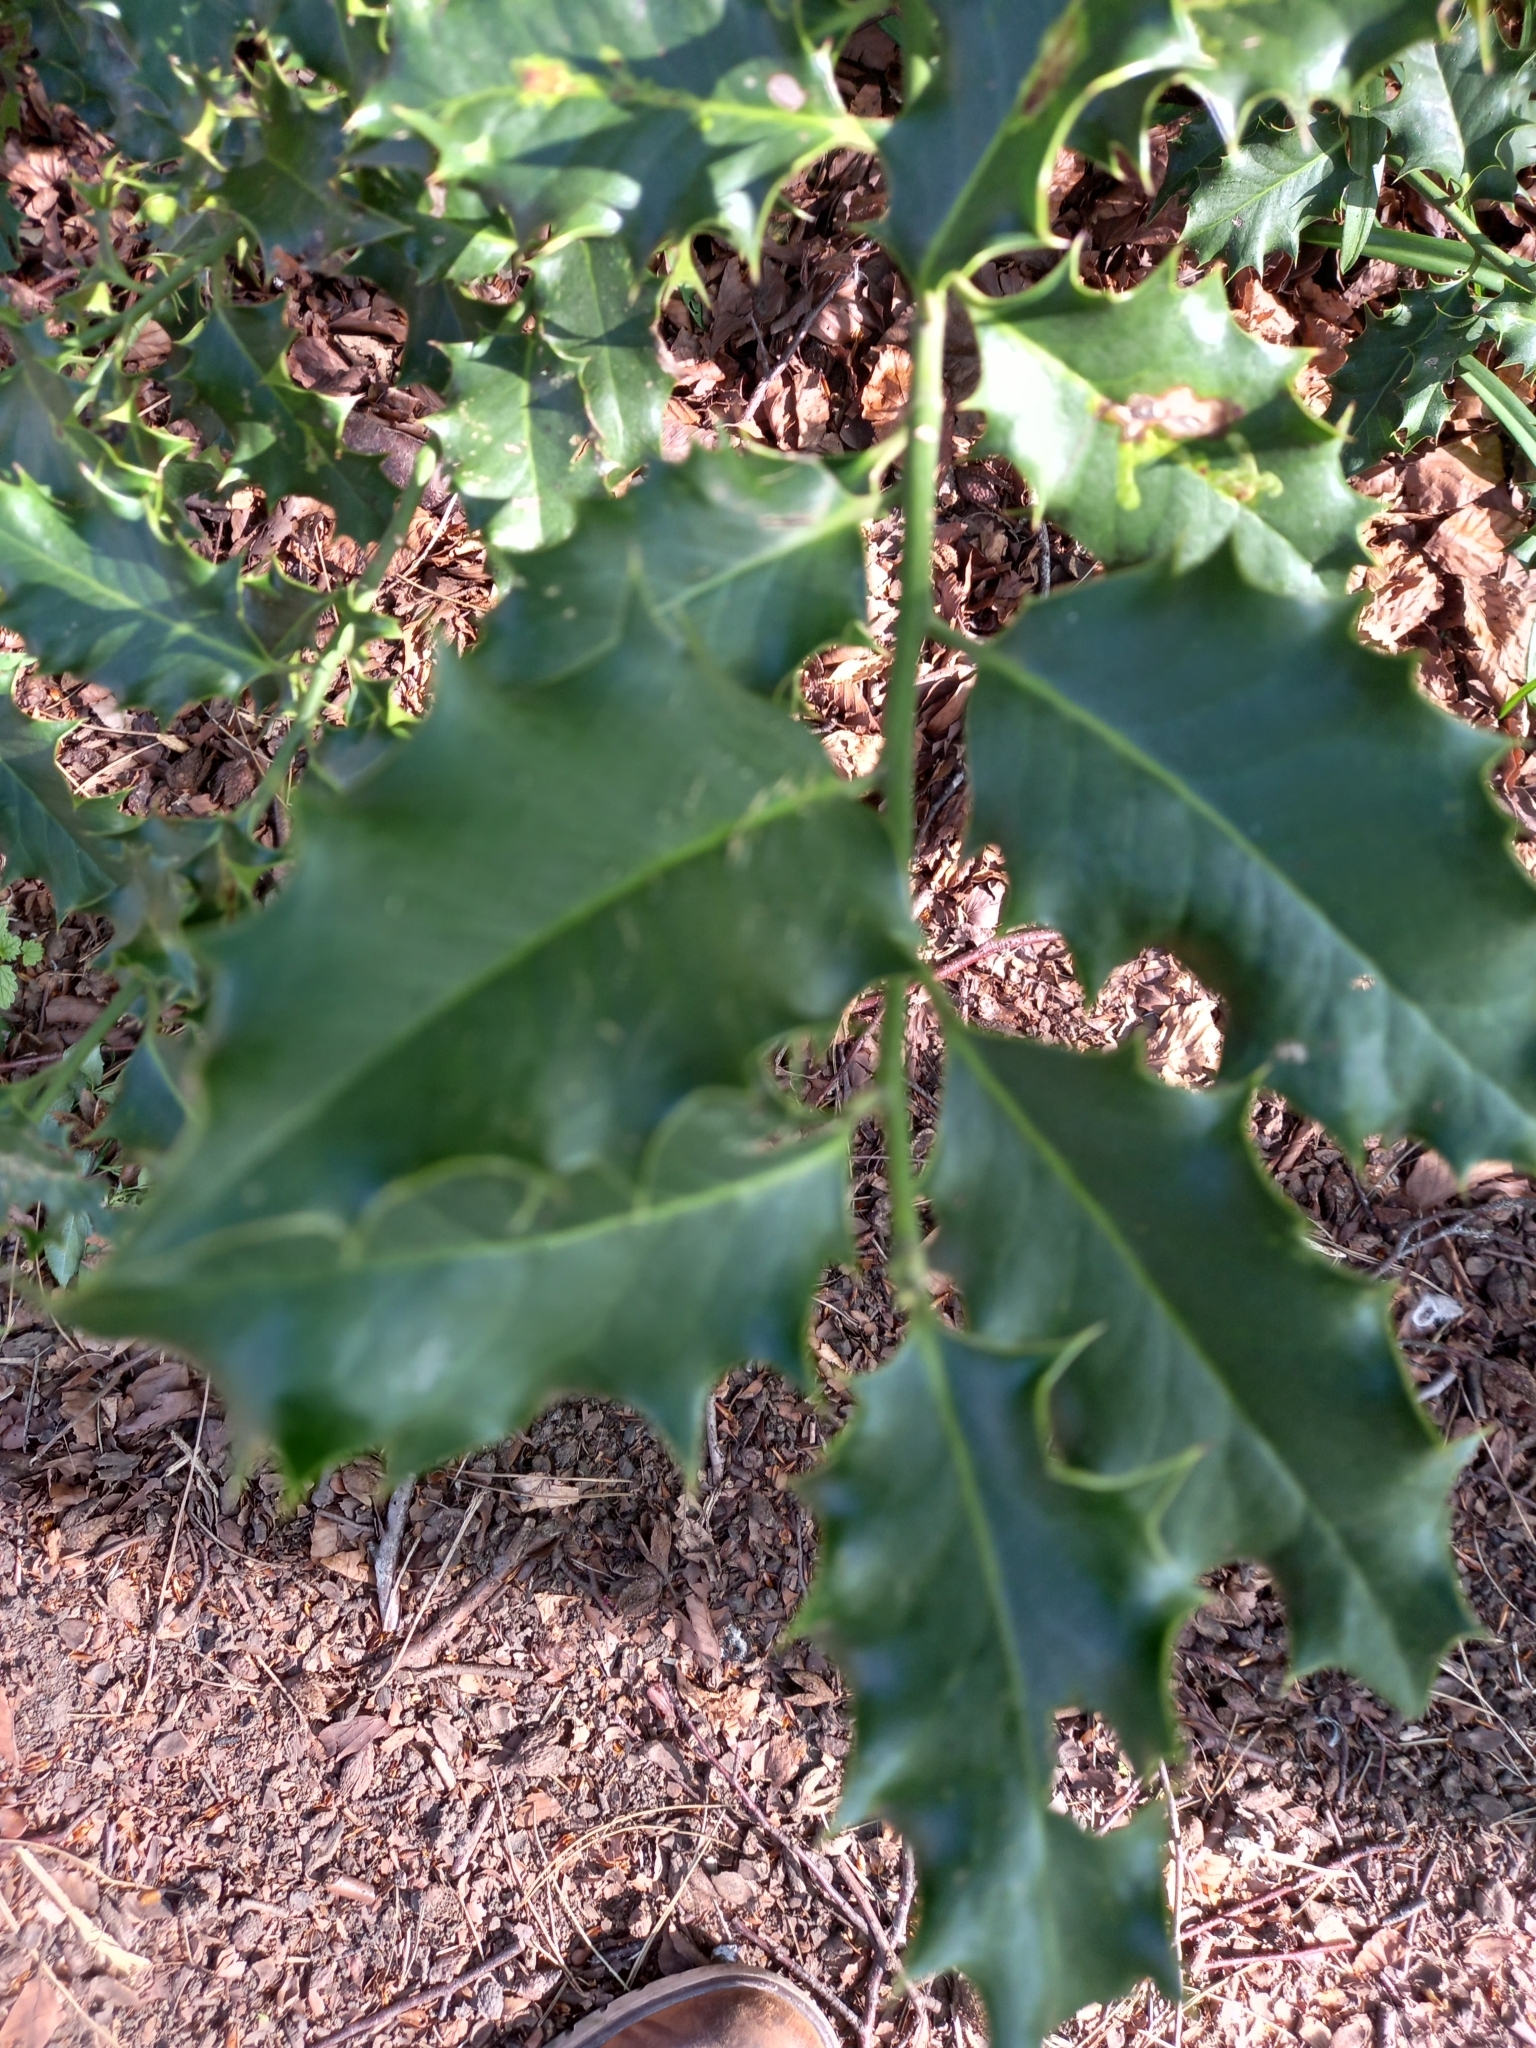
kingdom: Plantae
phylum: Tracheophyta
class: Magnoliopsida
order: Aquifoliales
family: Aquifoliaceae
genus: Ilex
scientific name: Ilex aquifolium
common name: English holly
